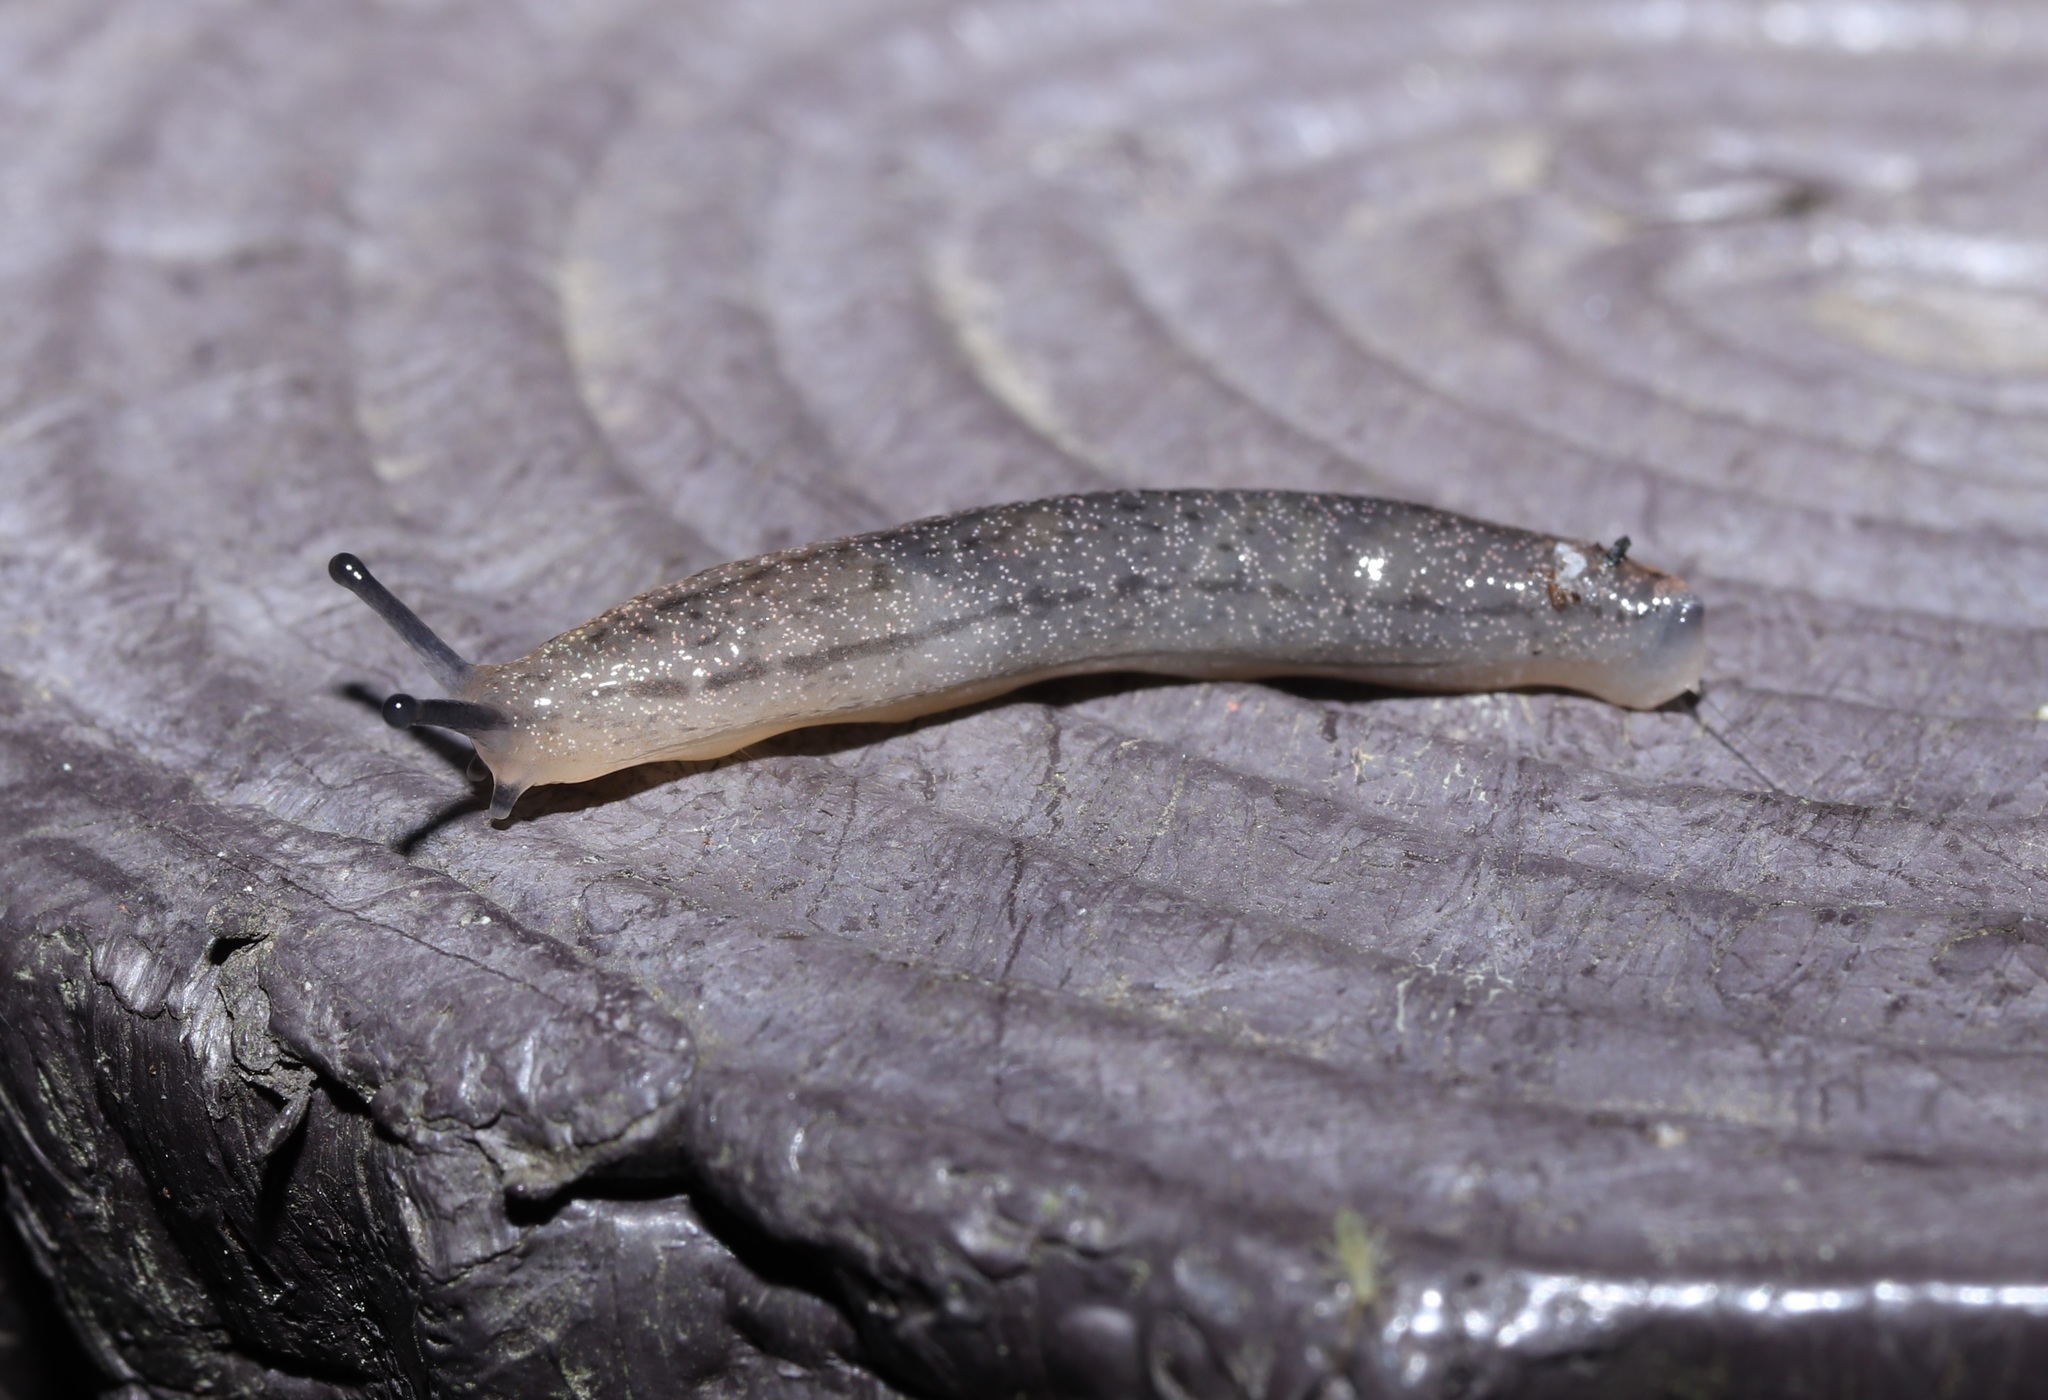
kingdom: Animalia
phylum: Mollusca
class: Gastropoda
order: Stylommatophora
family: Philomycidae
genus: Meghimatium
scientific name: Meghimatium bilineatum
